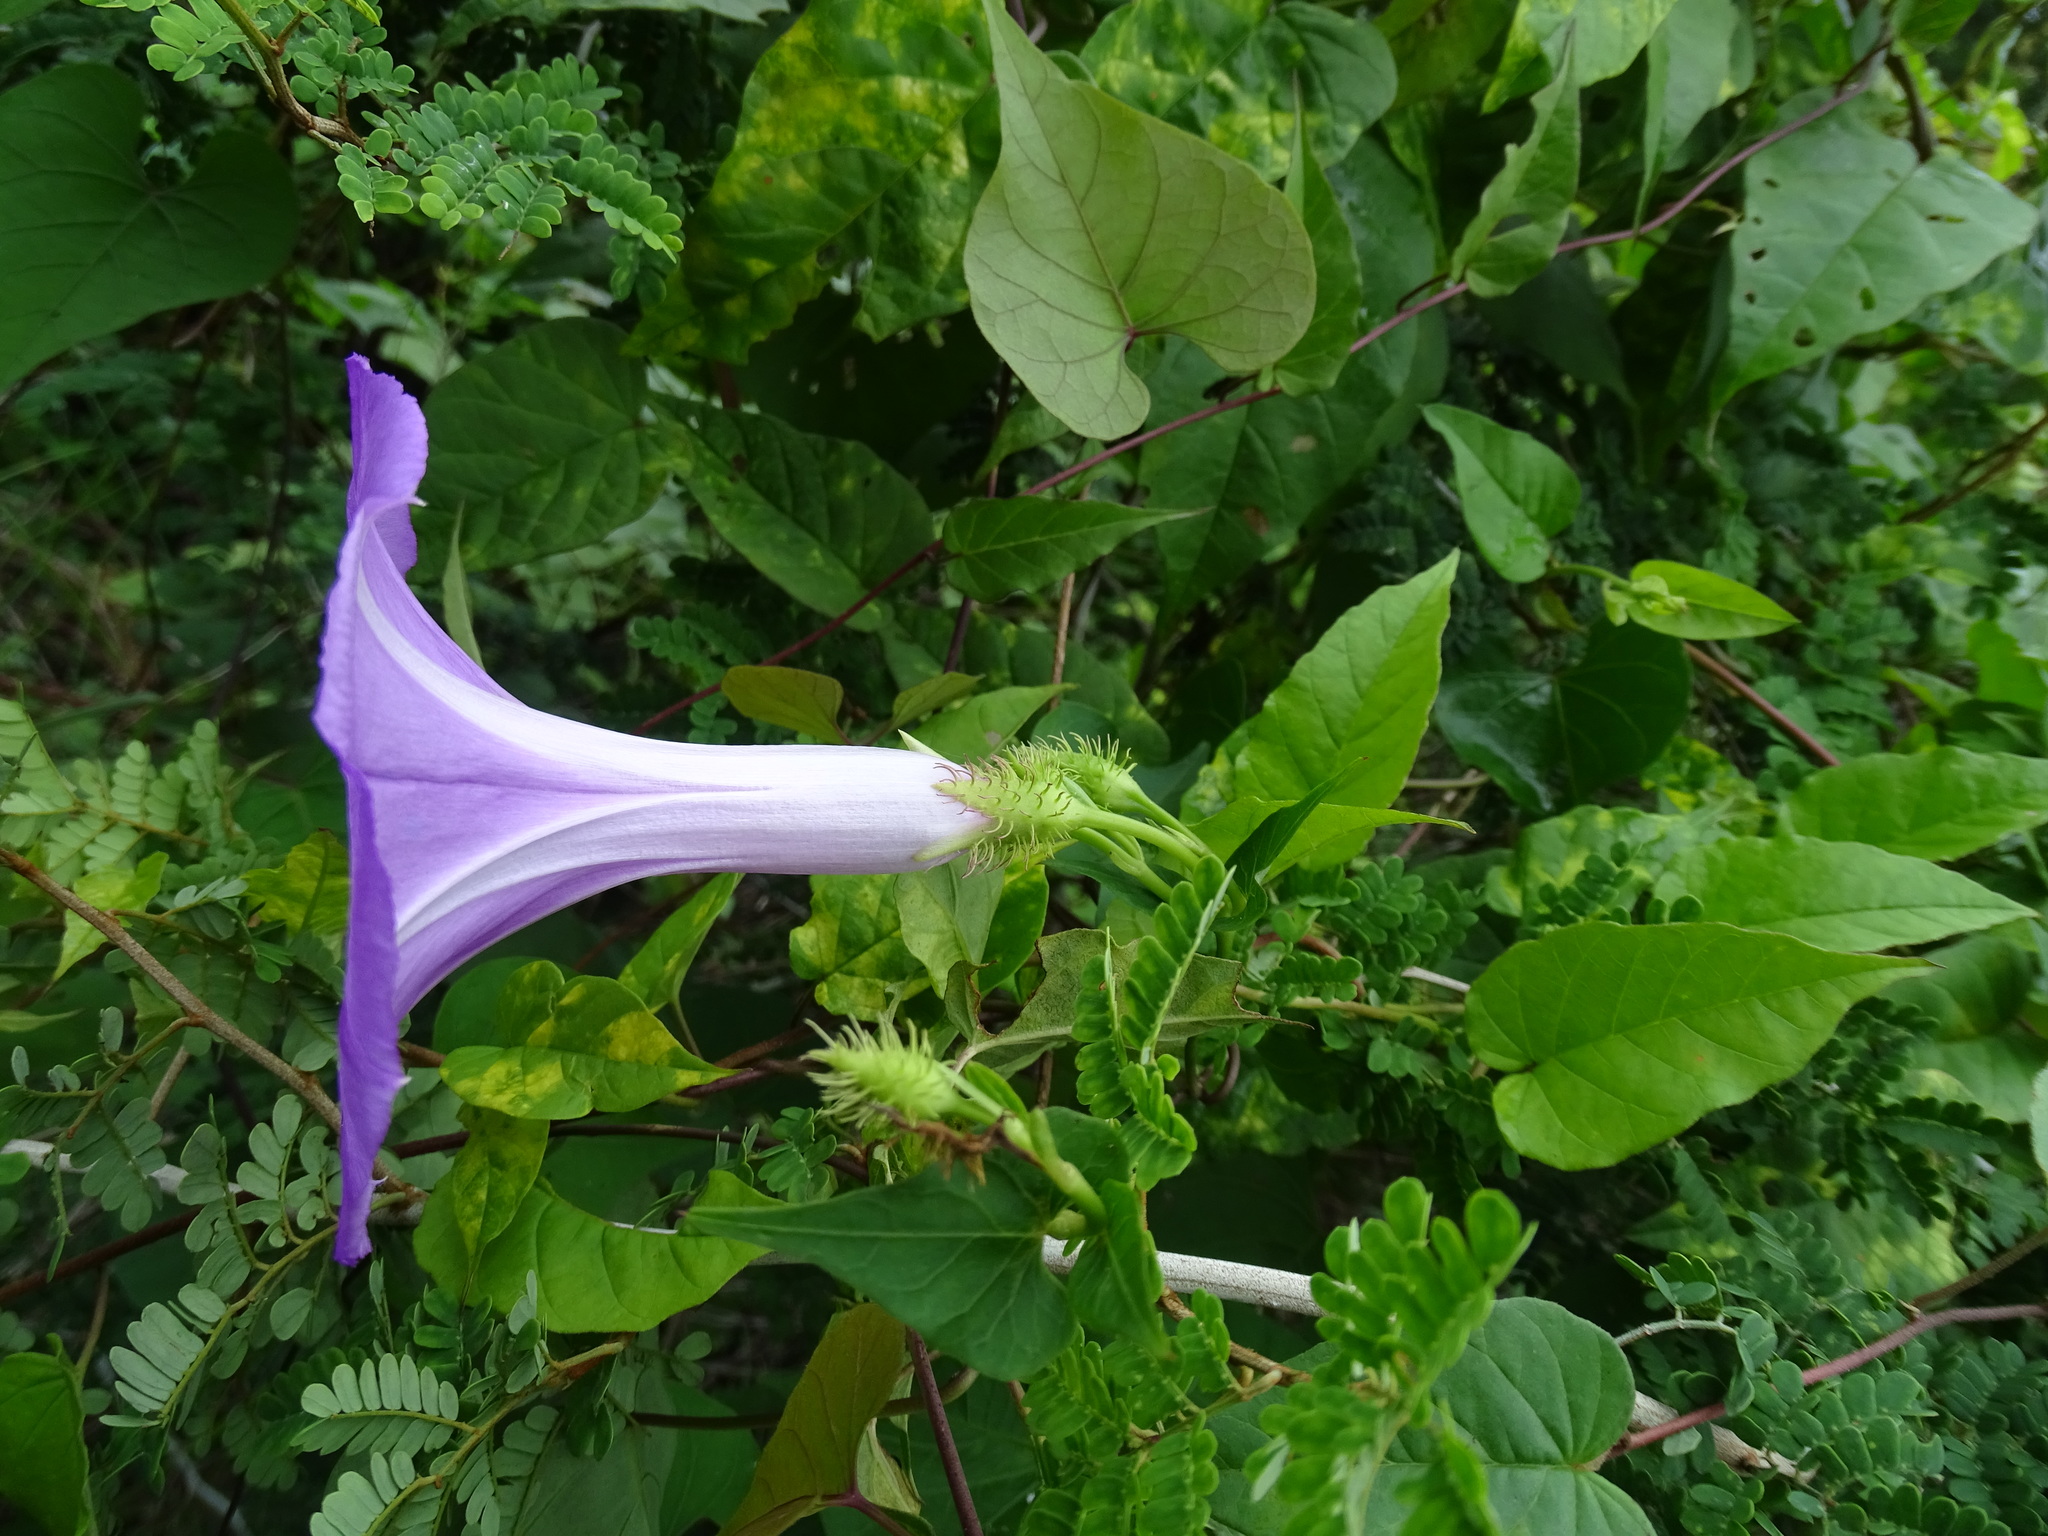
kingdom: Plantae
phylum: Tracheophyta
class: Magnoliopsida
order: Solanales
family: Convolvulaceae
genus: Ipomoea
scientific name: Ipomoea crinicalyx
